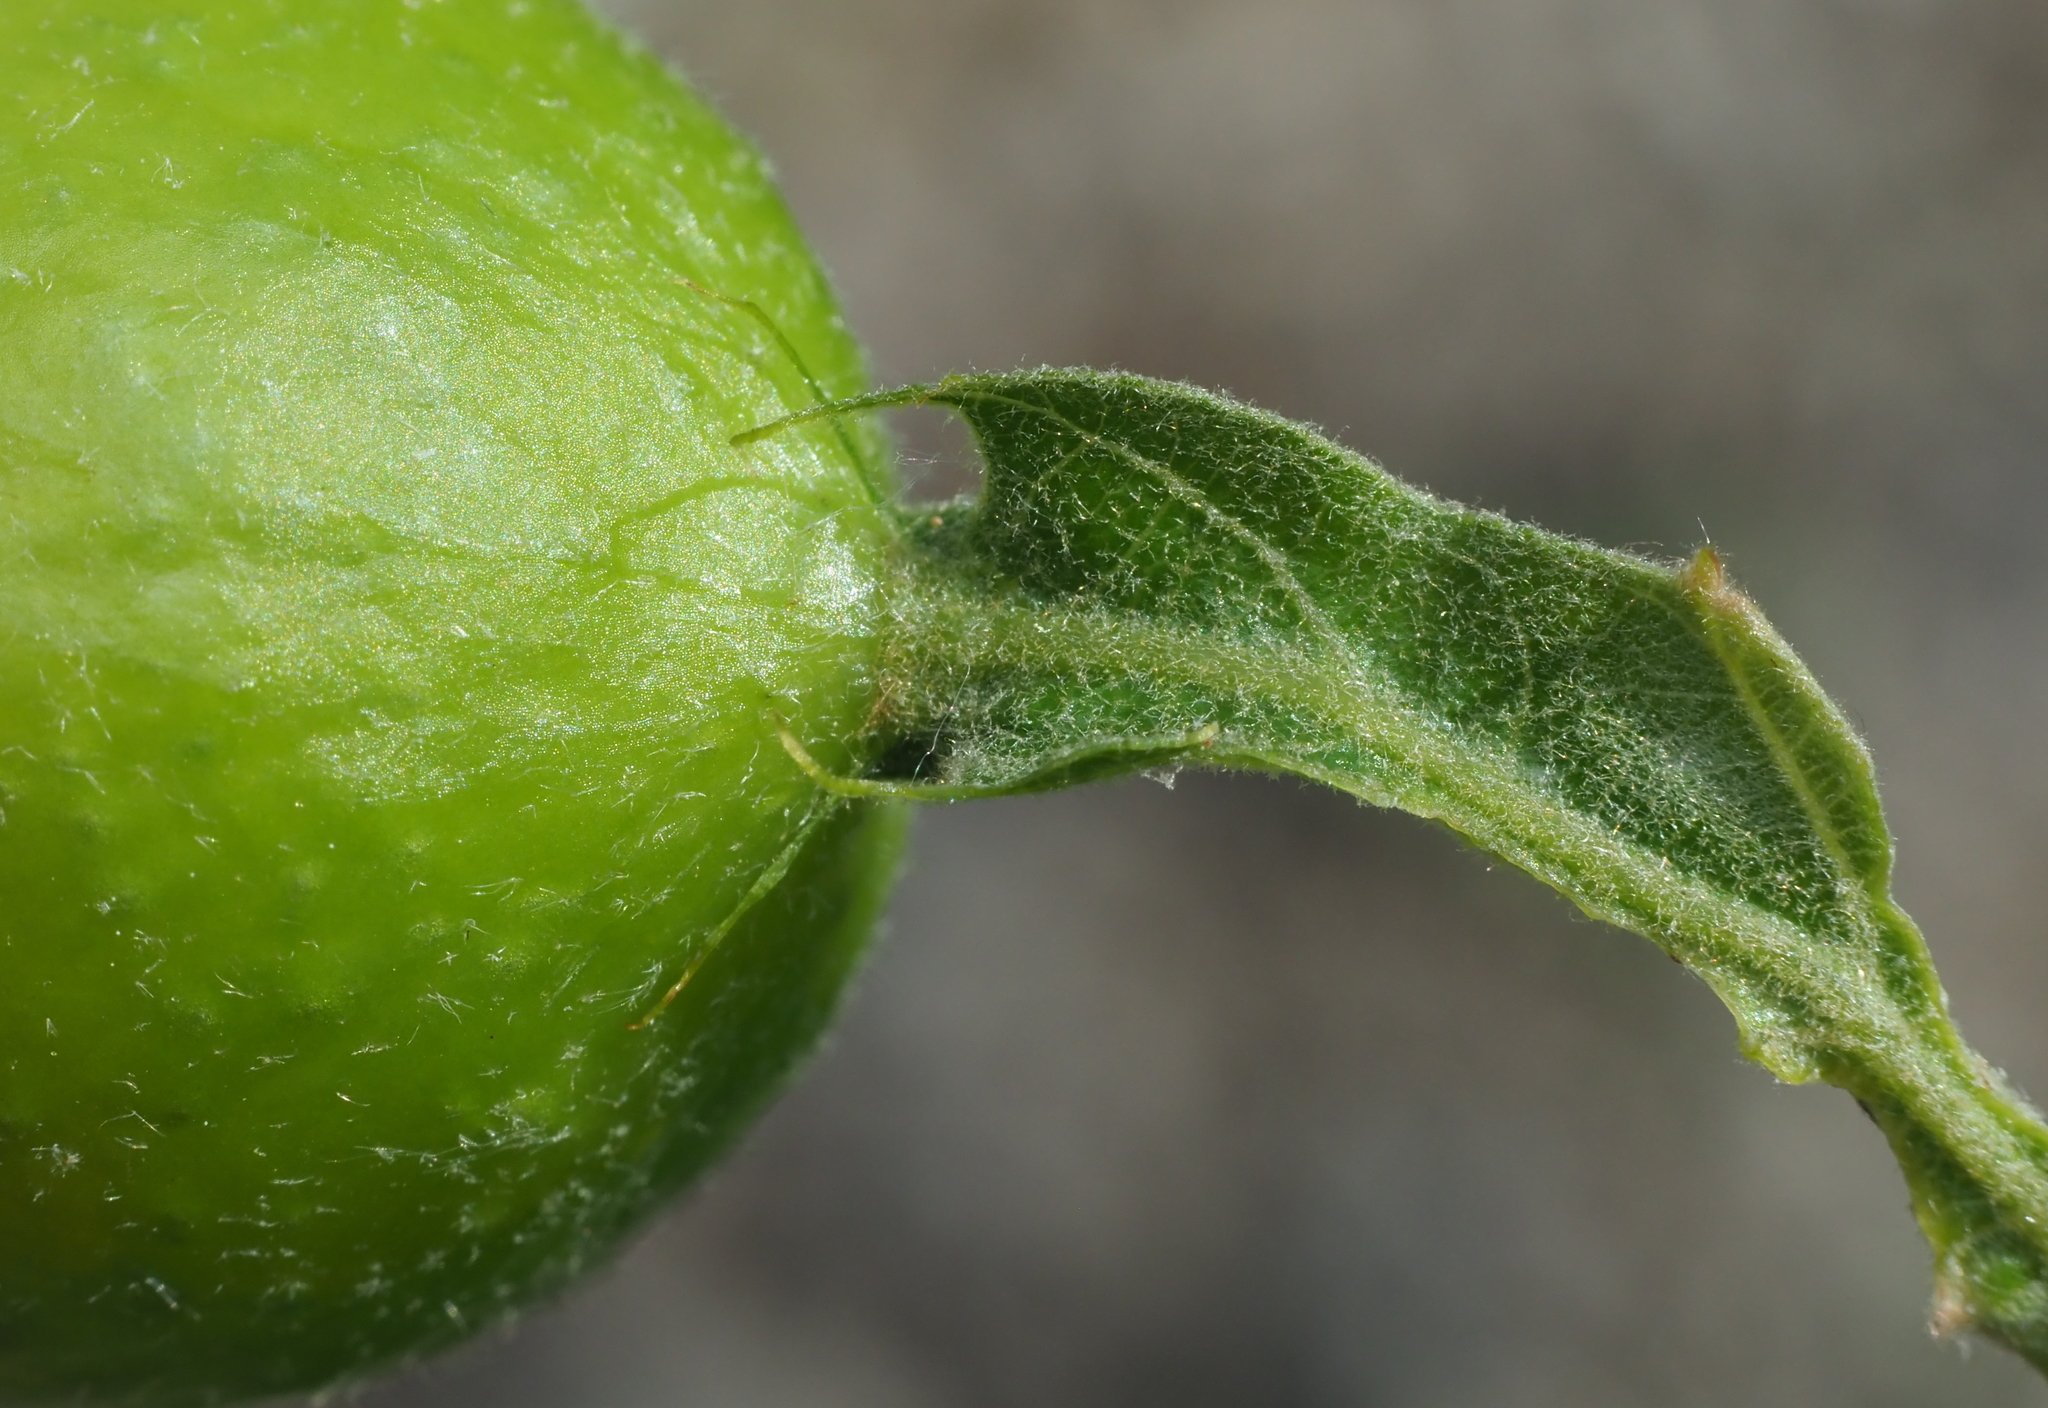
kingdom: Animalia
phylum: Arthropoda
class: Insecta
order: Hymenoptera
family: Cynipidae
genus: Amphibolips
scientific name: Amphibolips
